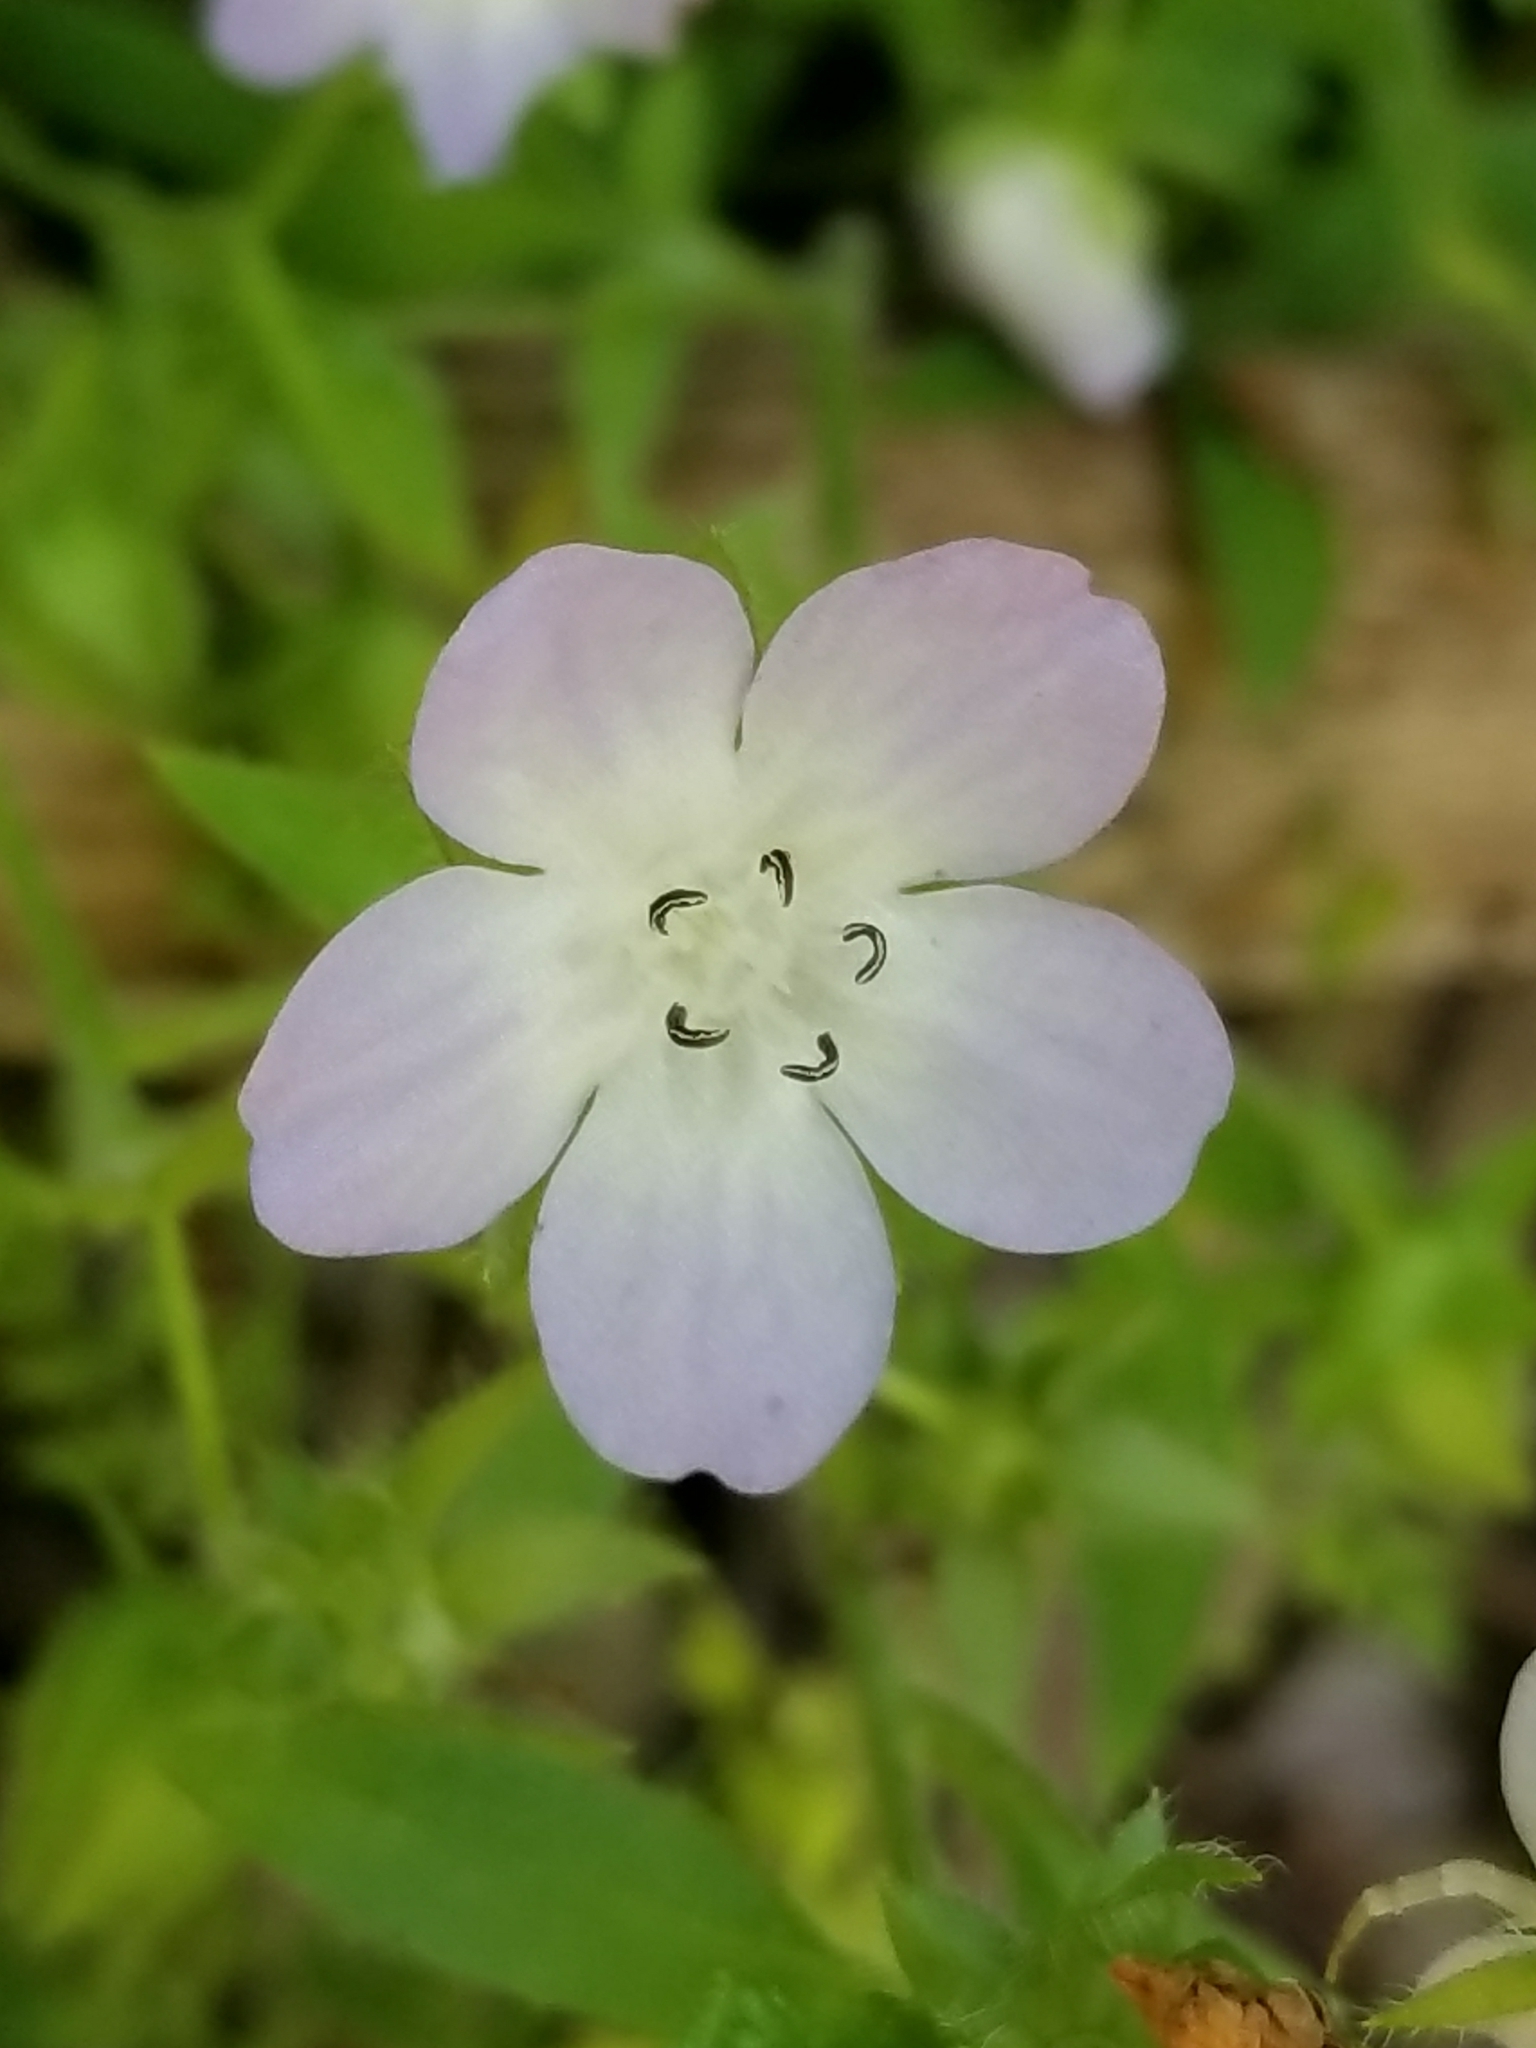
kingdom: Plantae
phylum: Tracheophyta
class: Magnoliopsida
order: Boraginales
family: Hydrophyllaceae
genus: Nemophila
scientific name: Nemophila phacelioides
